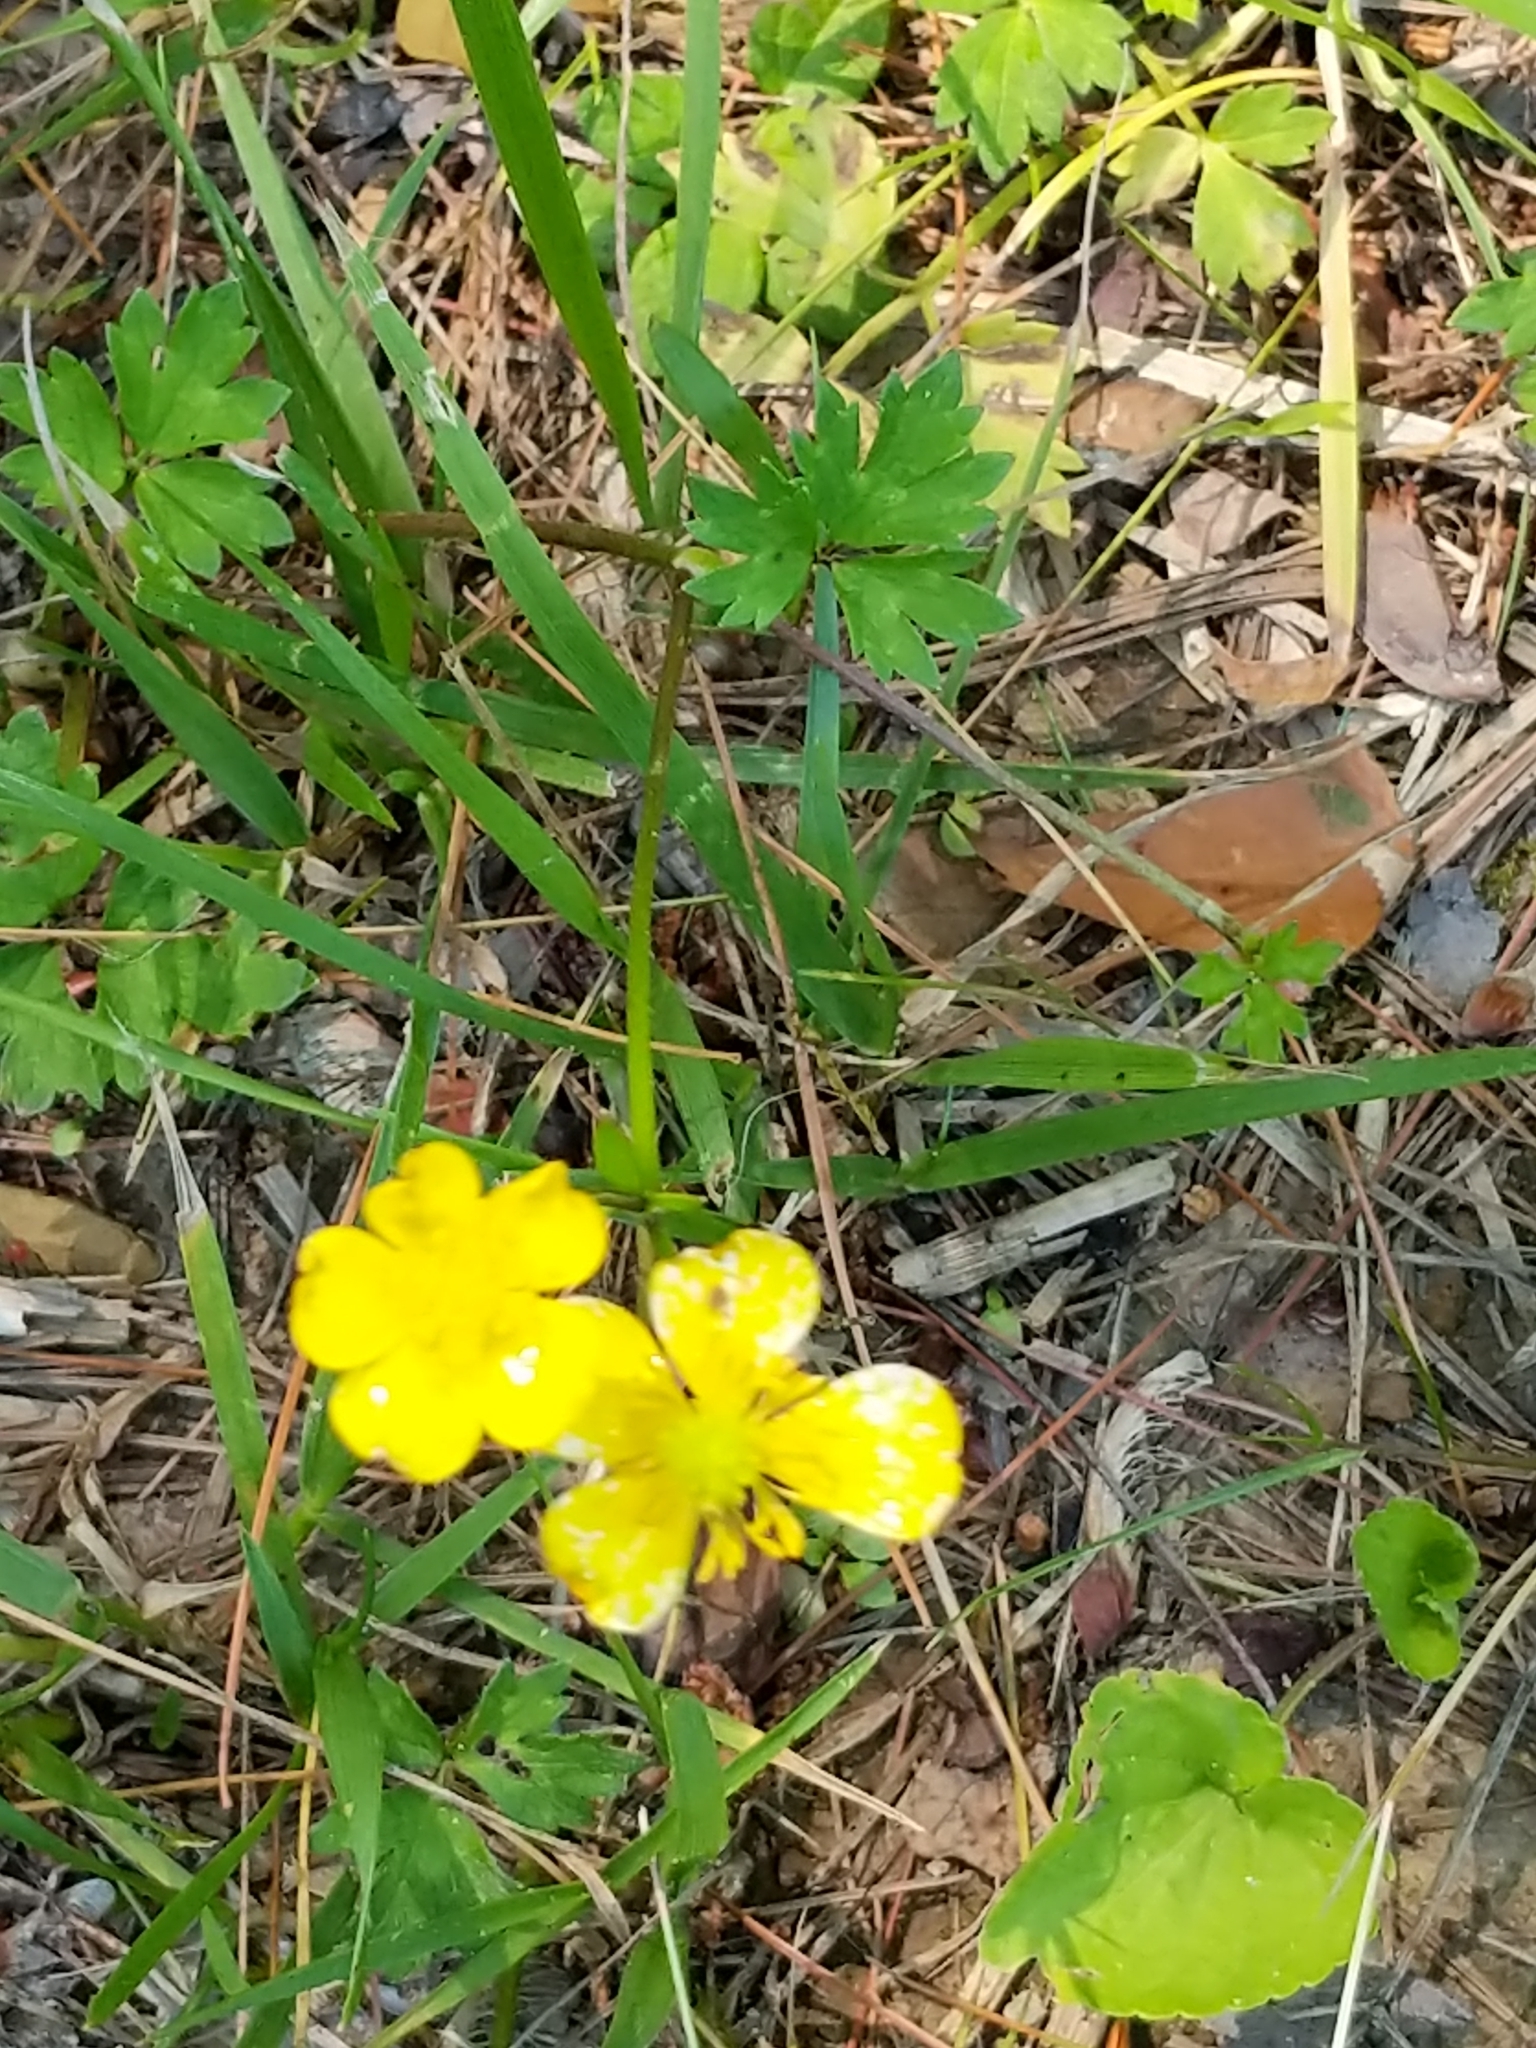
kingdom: Plantae
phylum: Tracheophyta
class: Magnoliopsida
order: Ranunculales
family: Ranunculaceae
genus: Ranunculus
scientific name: Ranunculus repens
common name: Creeping buttercup
